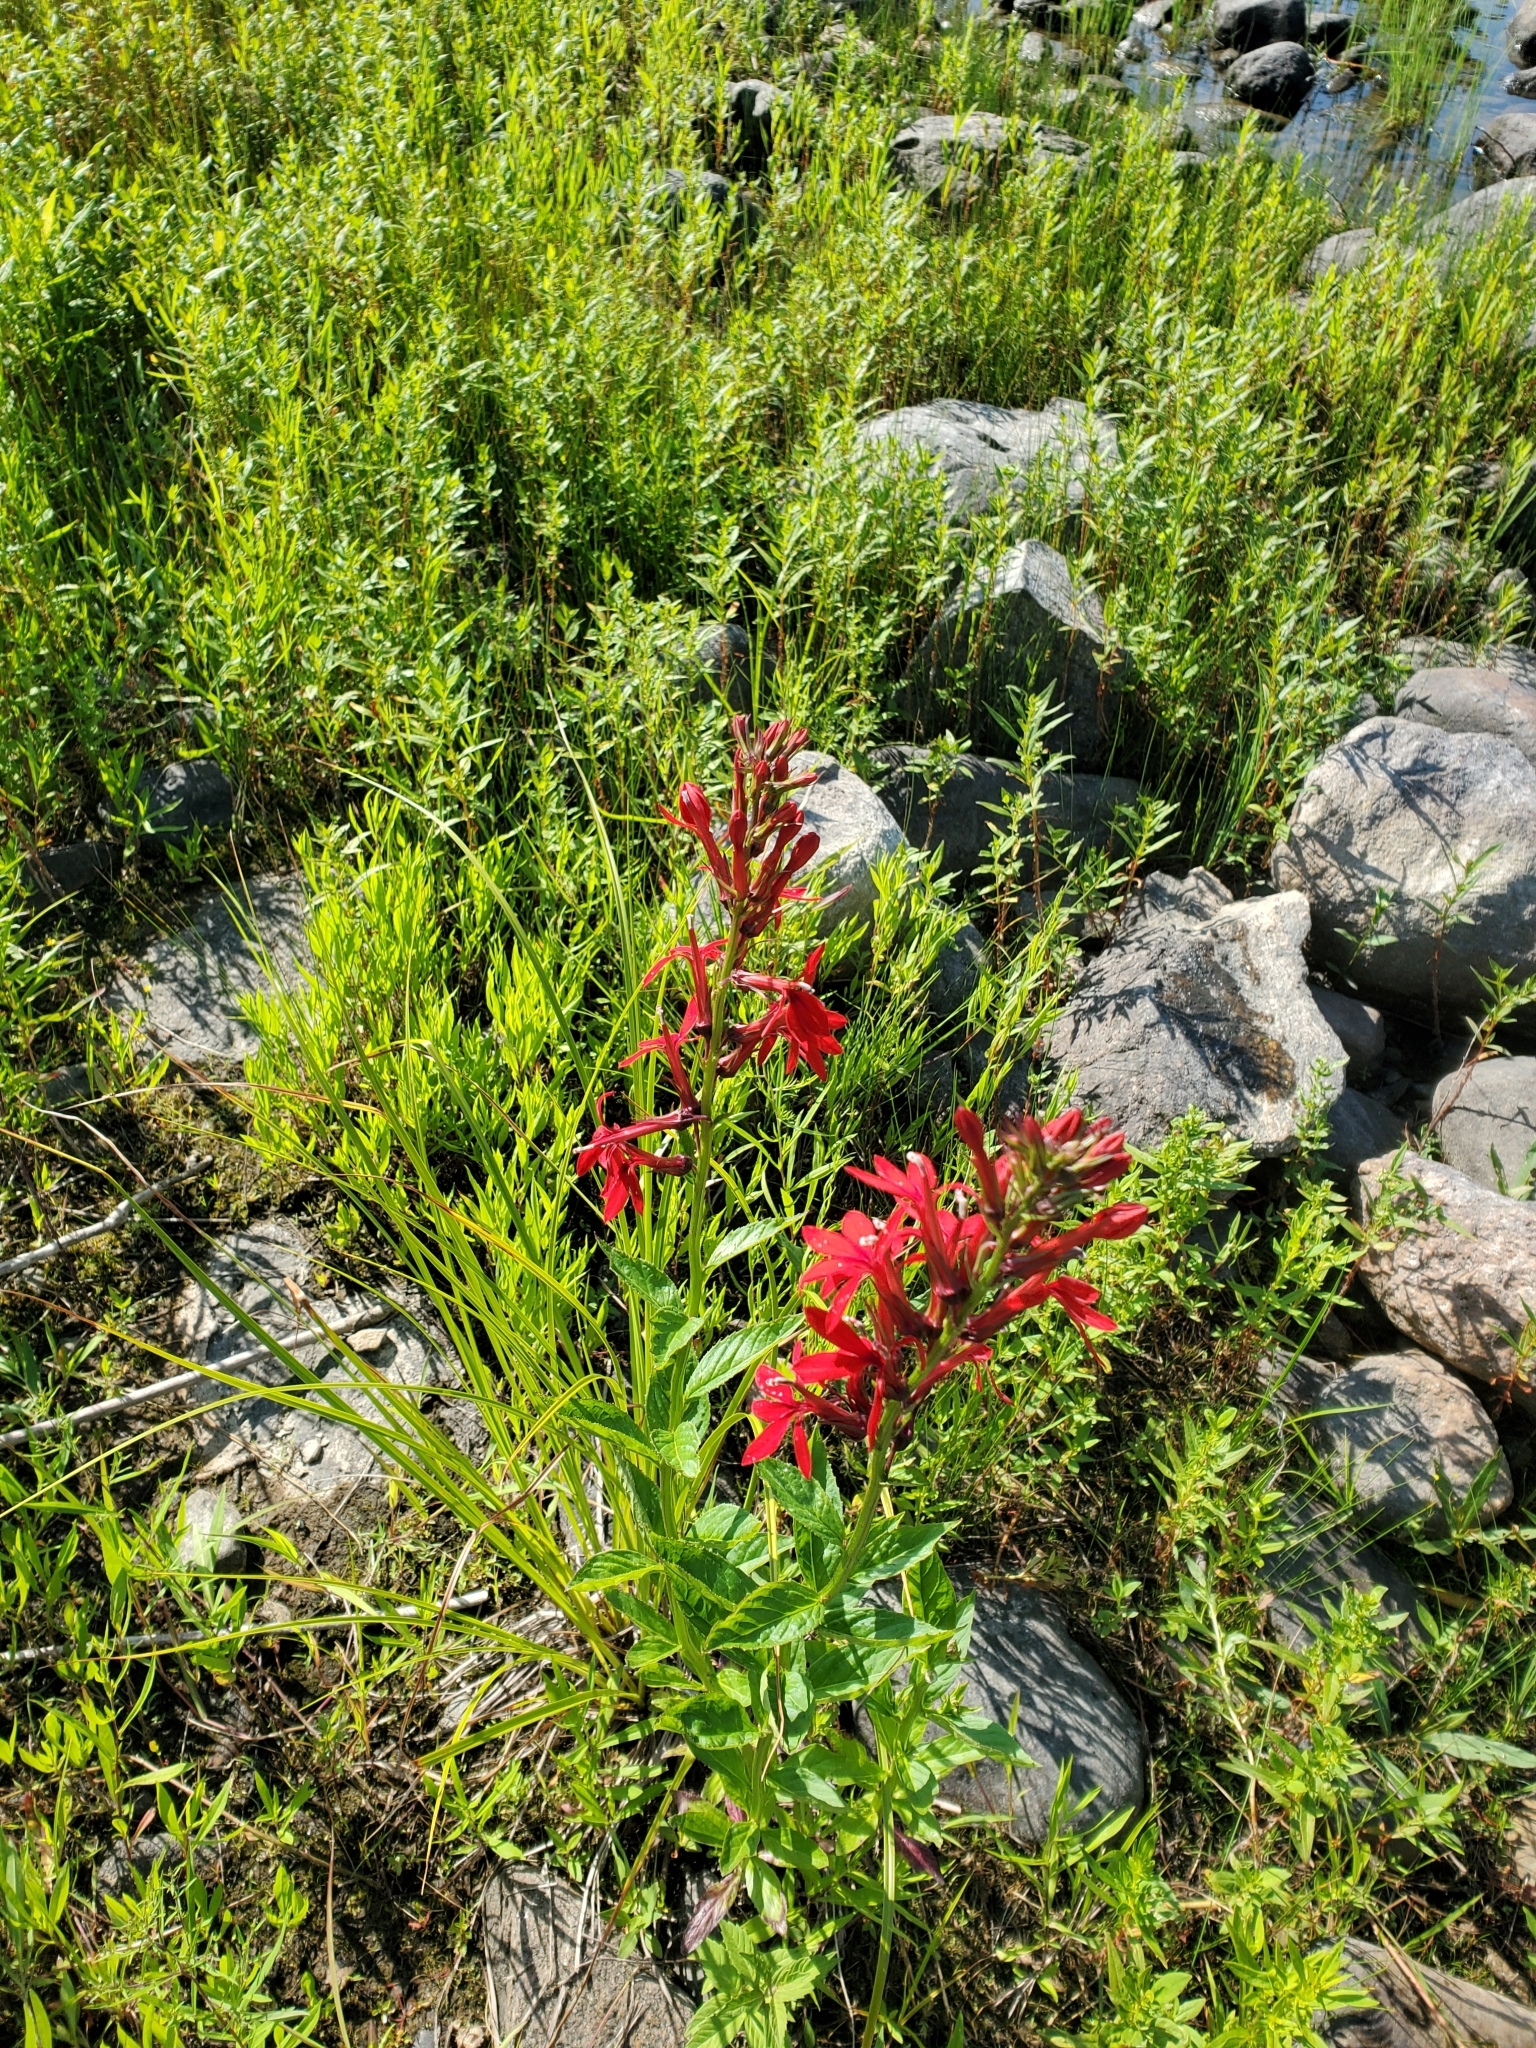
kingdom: Plantae
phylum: Tracheophyta
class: Magnoliopsida
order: Asterales
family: Campanulaceae
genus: Lobelia
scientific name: Lobelia cardinalis
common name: Cardinal flower
